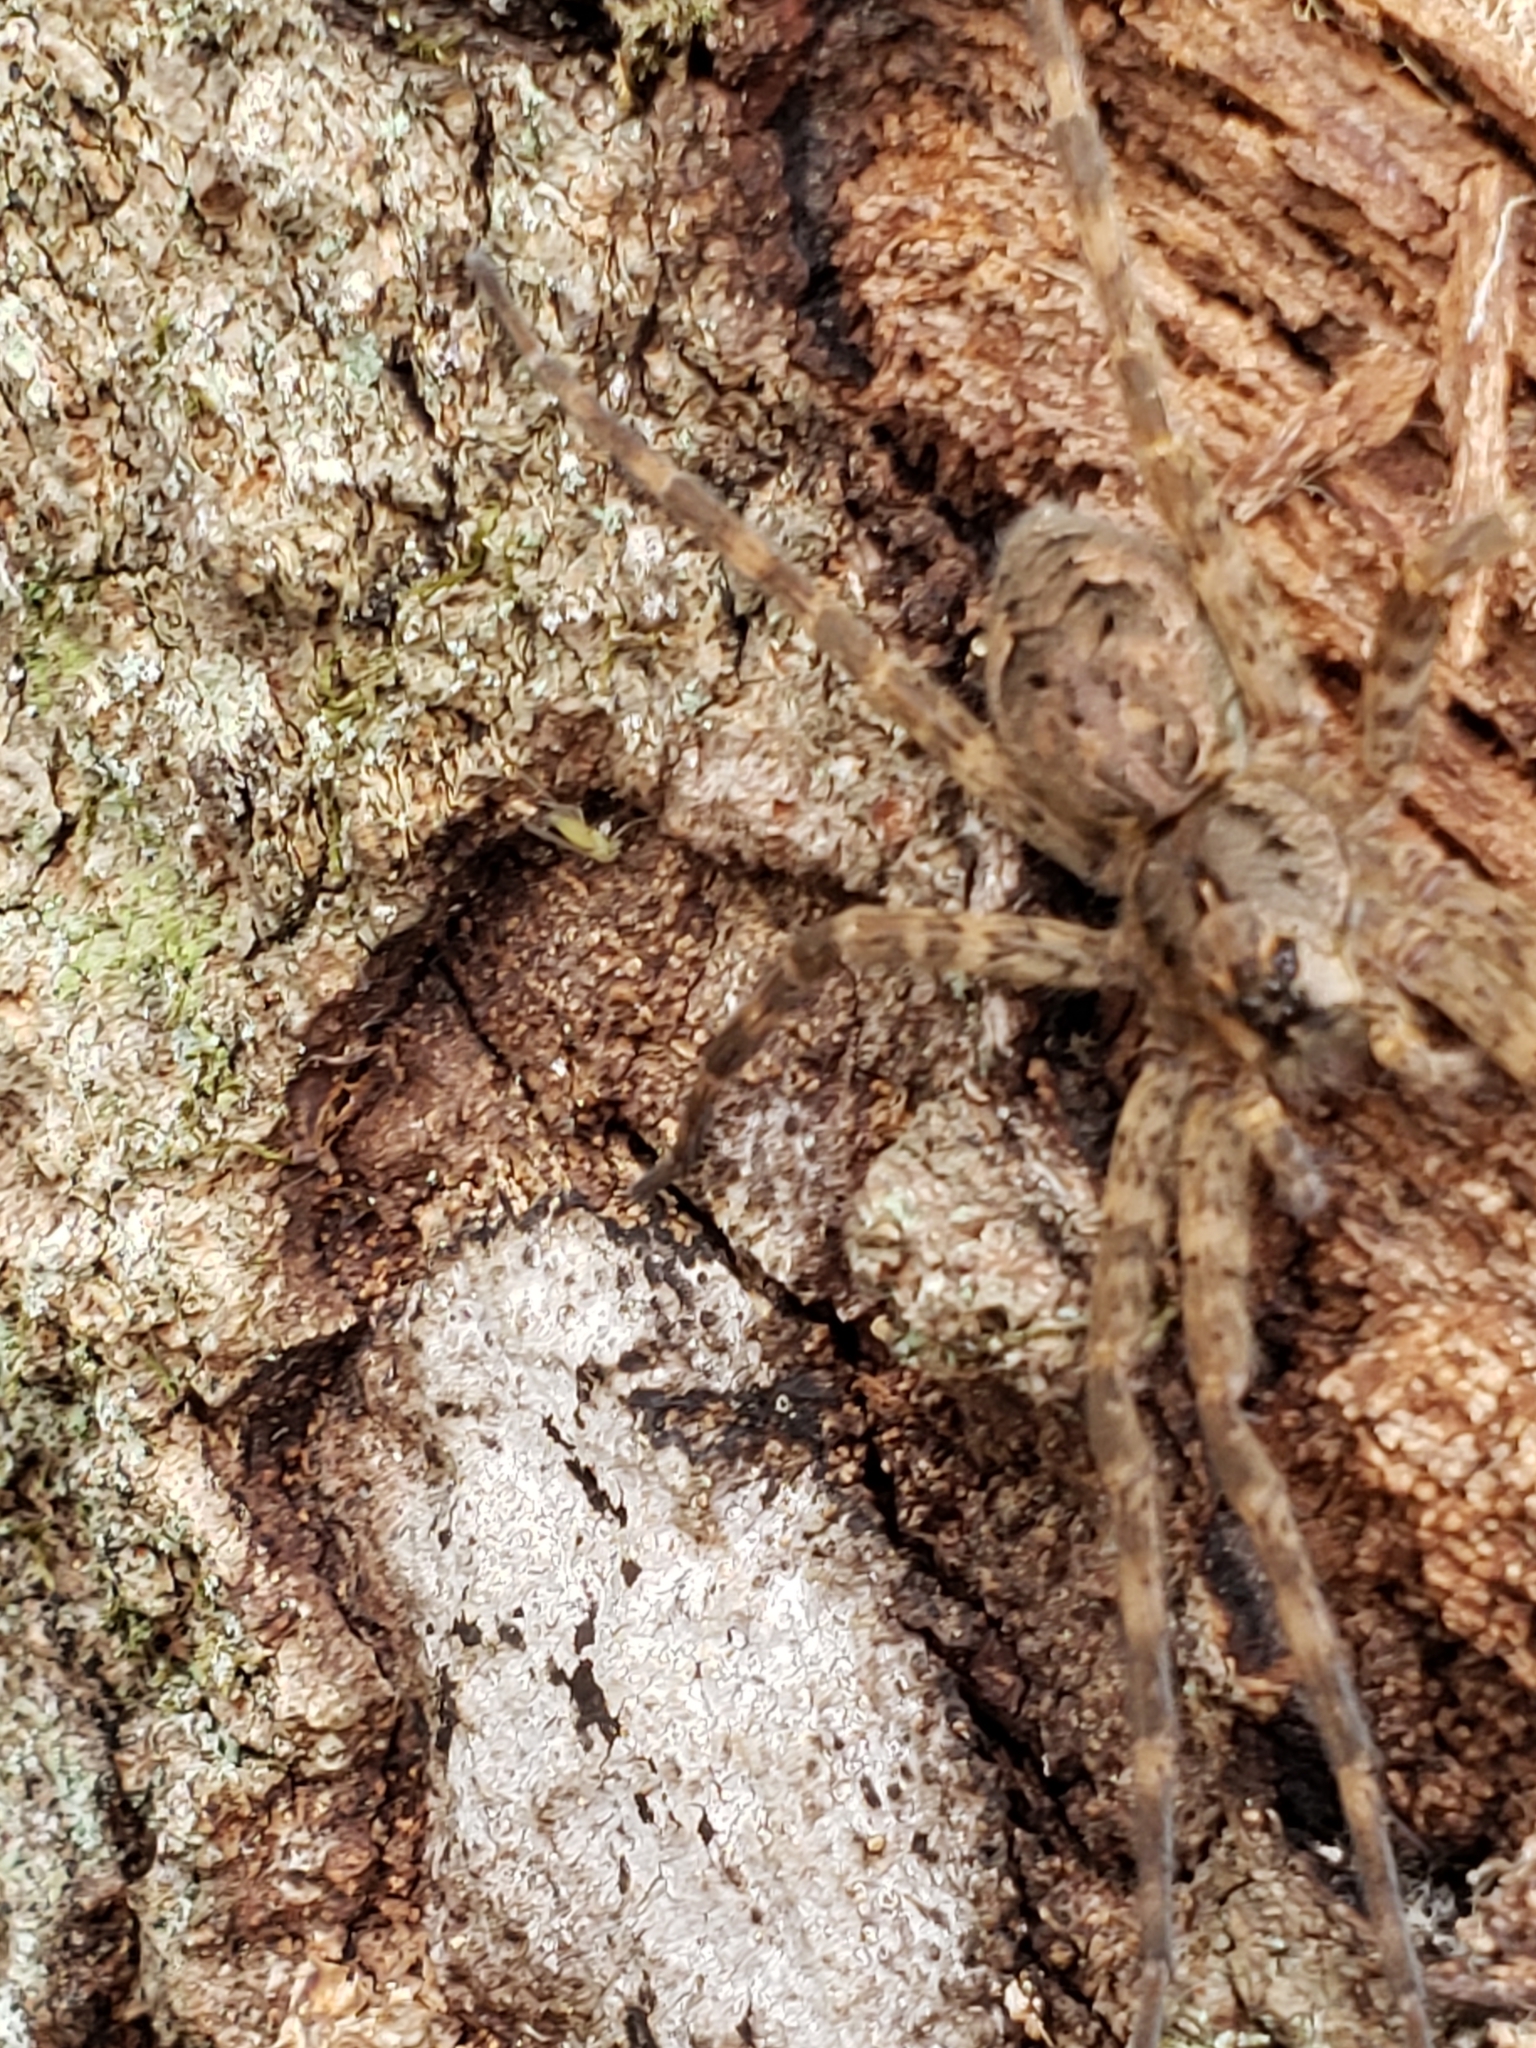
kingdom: Animalia
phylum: Arthropoda
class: Arachnida
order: Araneae
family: Pisauridae
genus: Dolomedes
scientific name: Dolomedes tenebrosus
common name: Dark fishing spider
